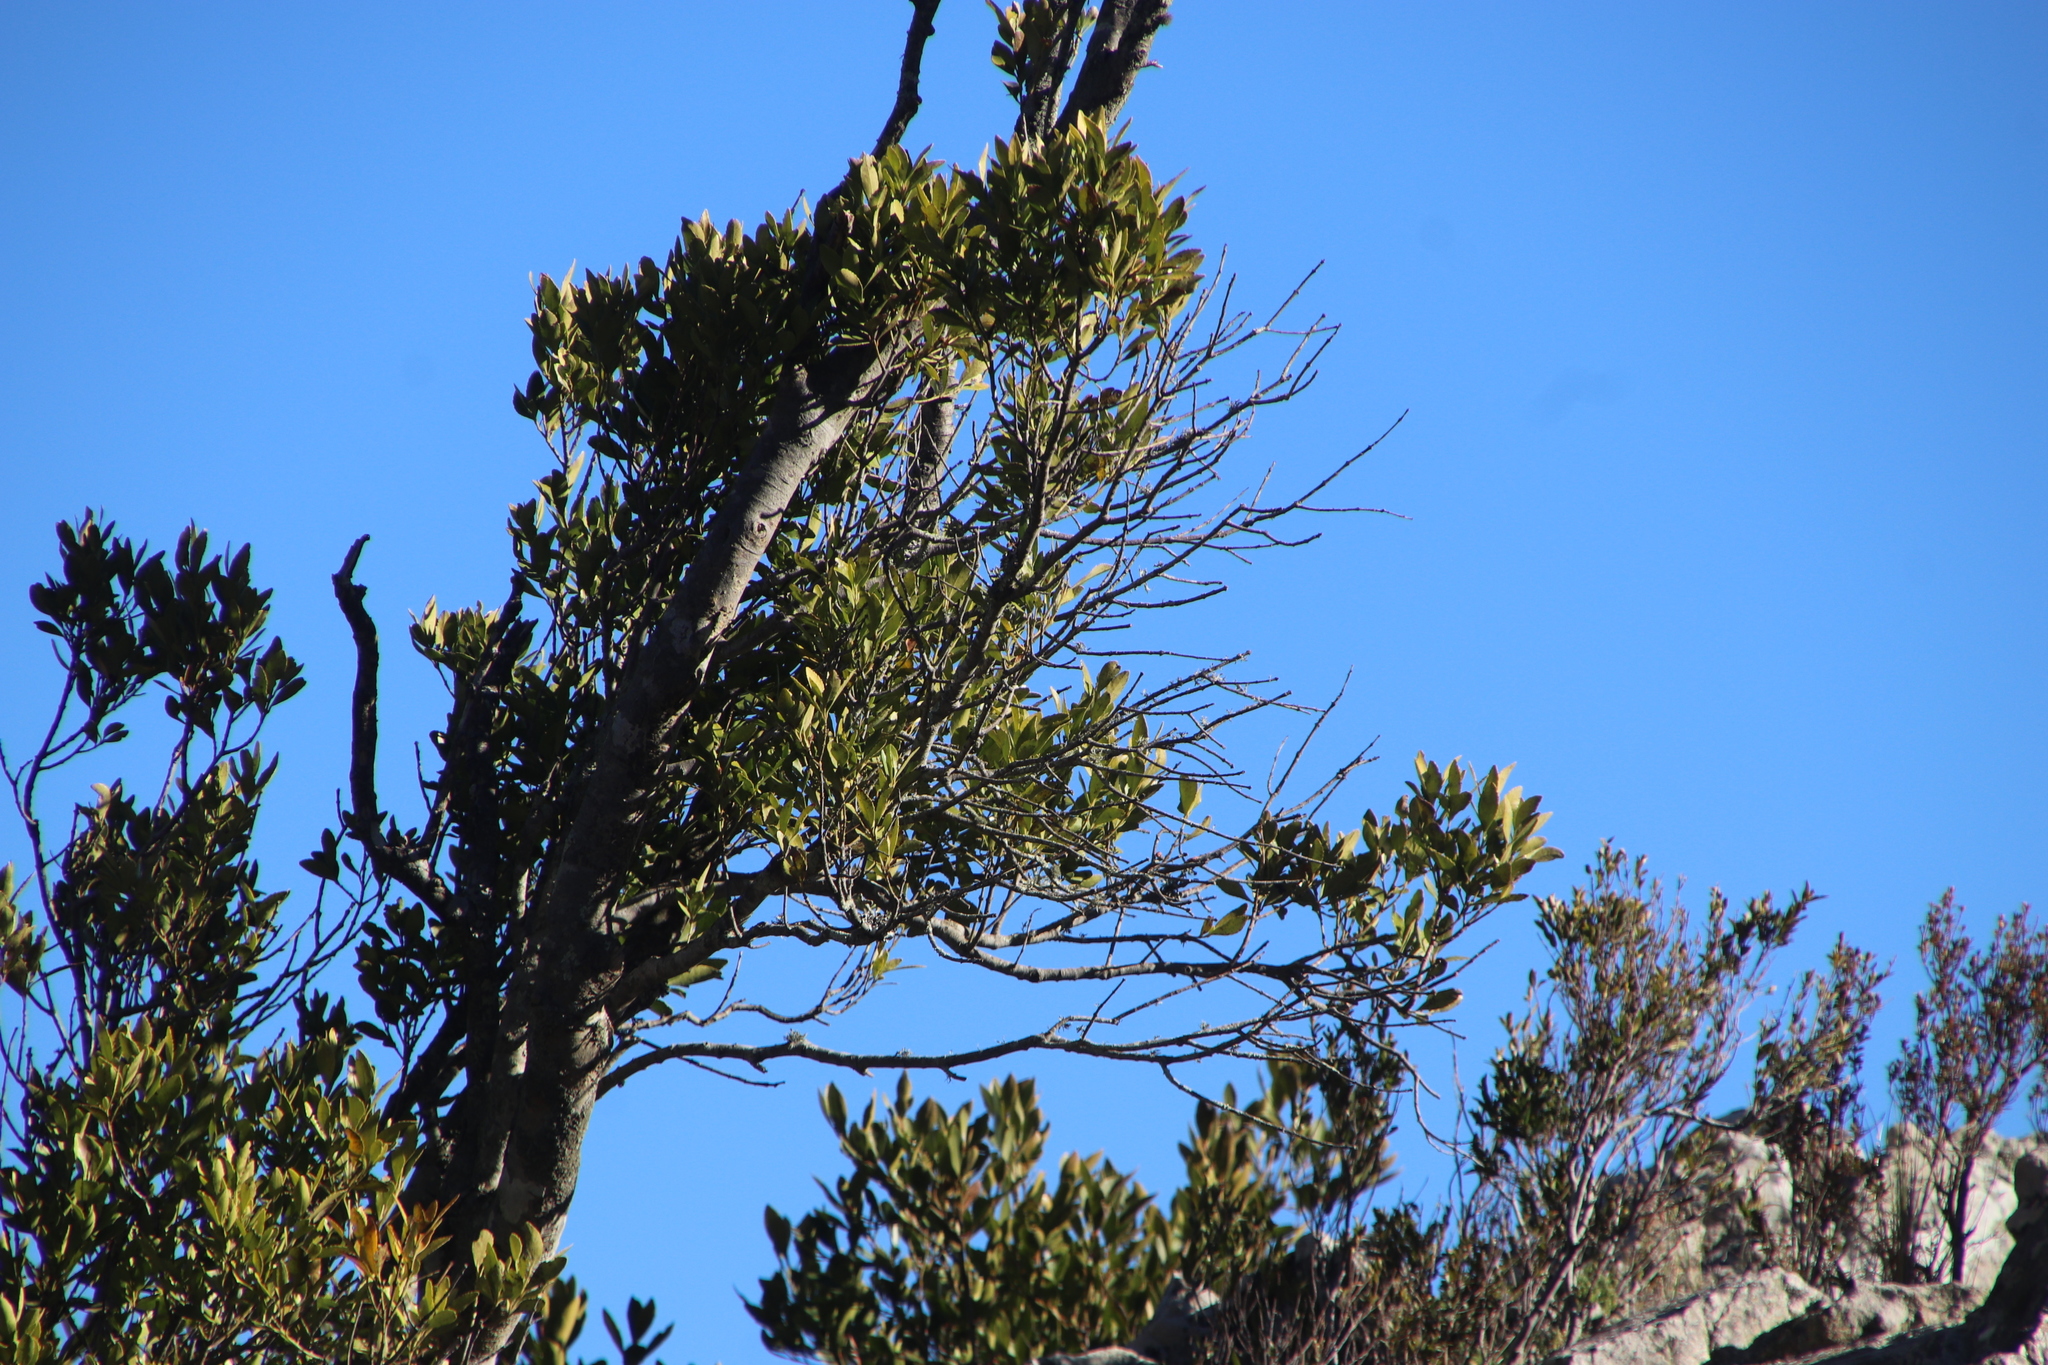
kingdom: Plantae
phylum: Tracheophyta
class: Magnoliopsida
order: Celastrales
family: Celastraceae
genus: Elaeodendron
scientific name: Elaeodendron schinoides
